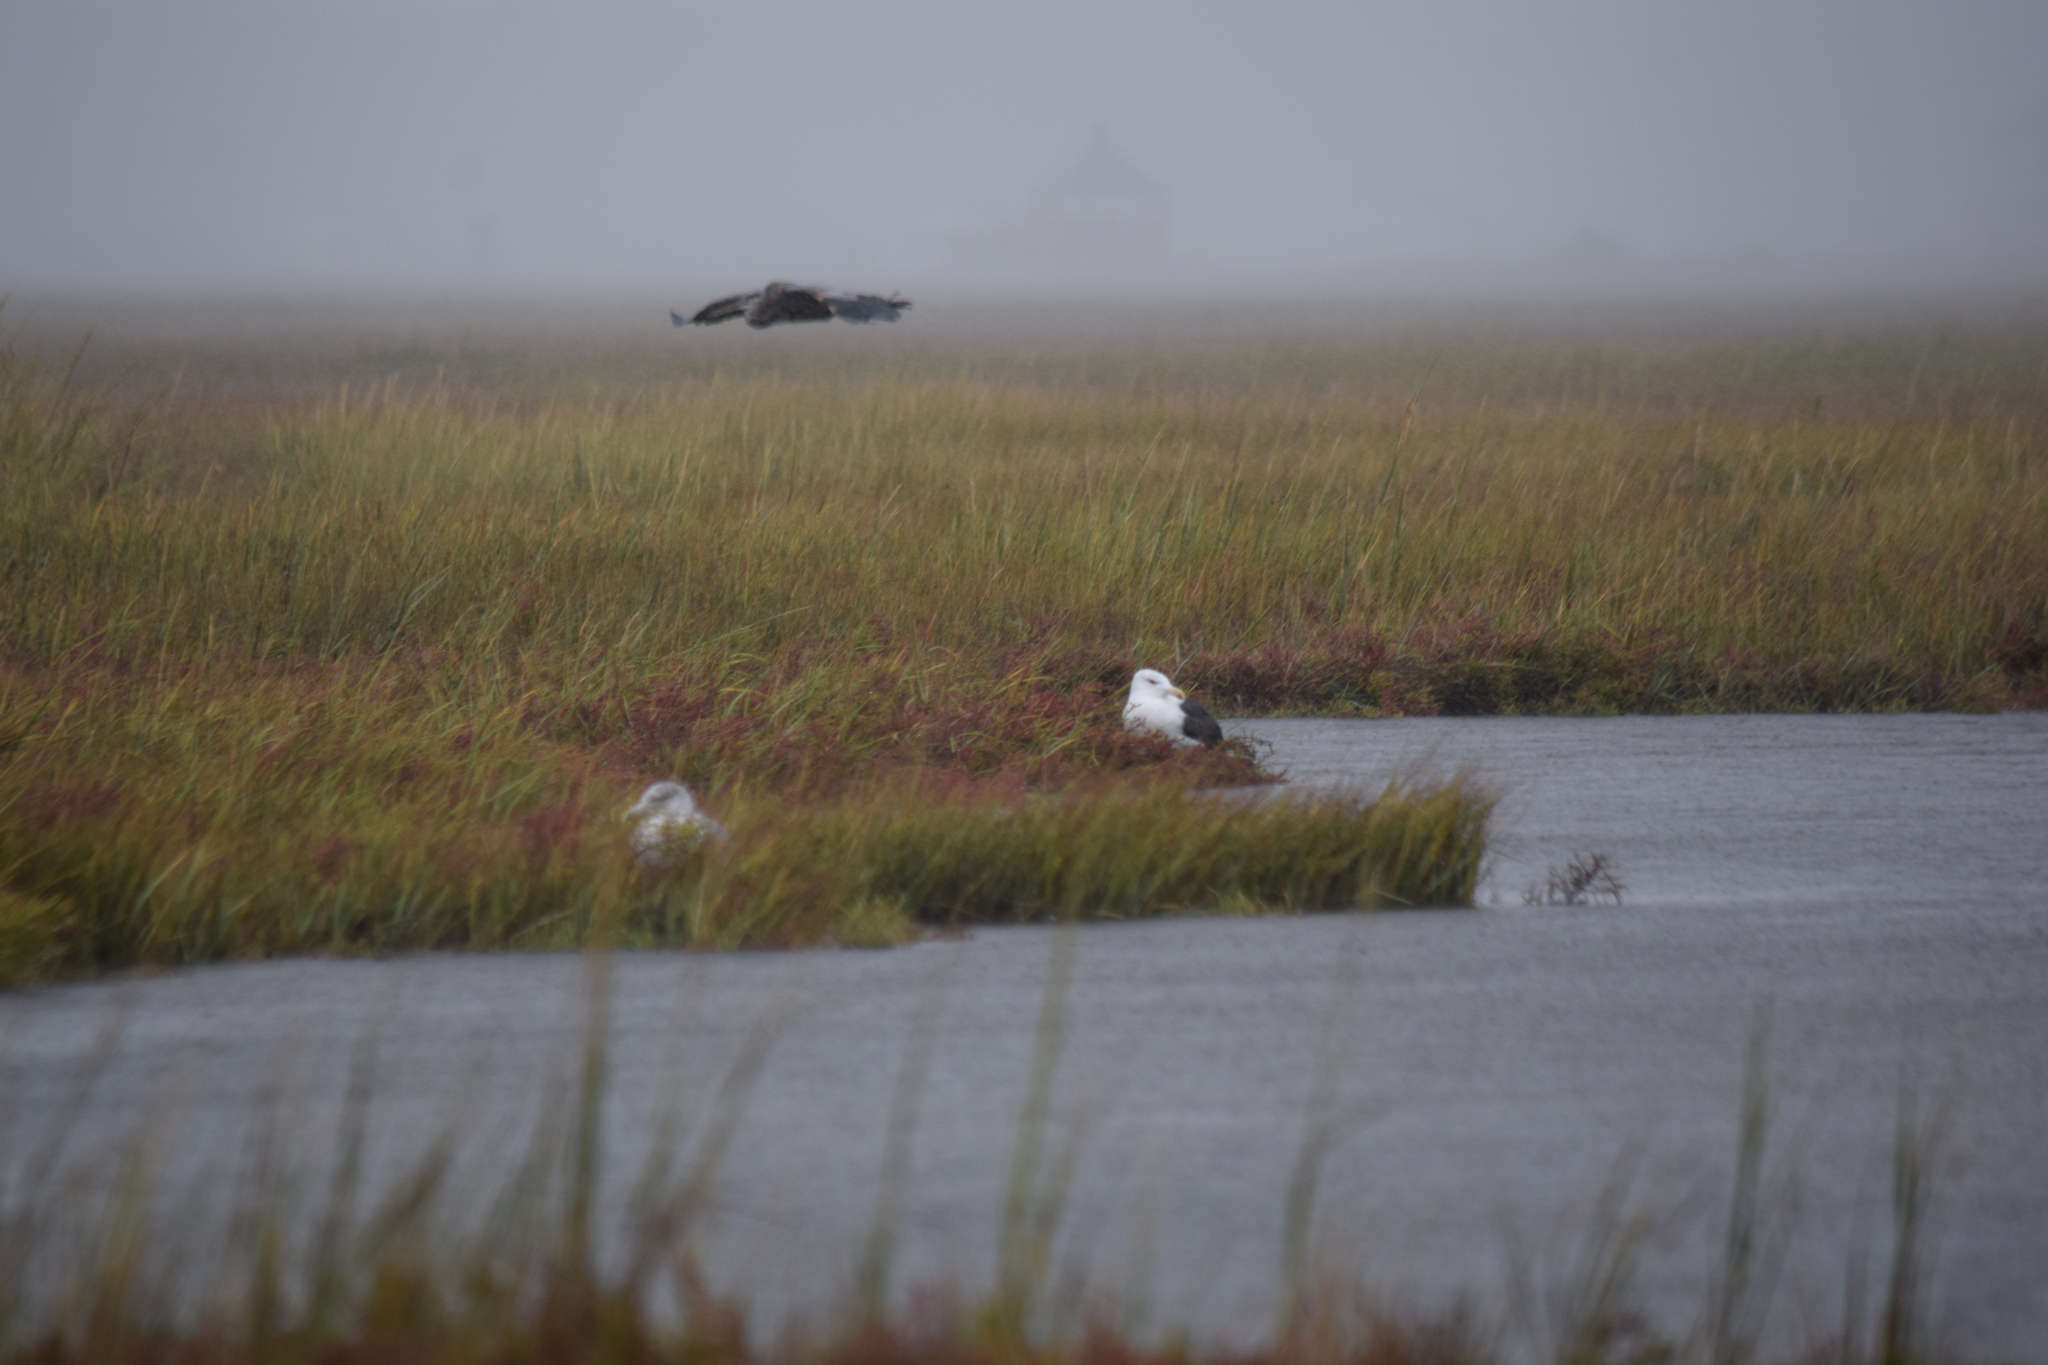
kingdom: Animalia
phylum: Chordata
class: Aves
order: Pelecaniformes
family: Ardeidae
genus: Ardea
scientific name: Ardea herodias
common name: Great blue heron
